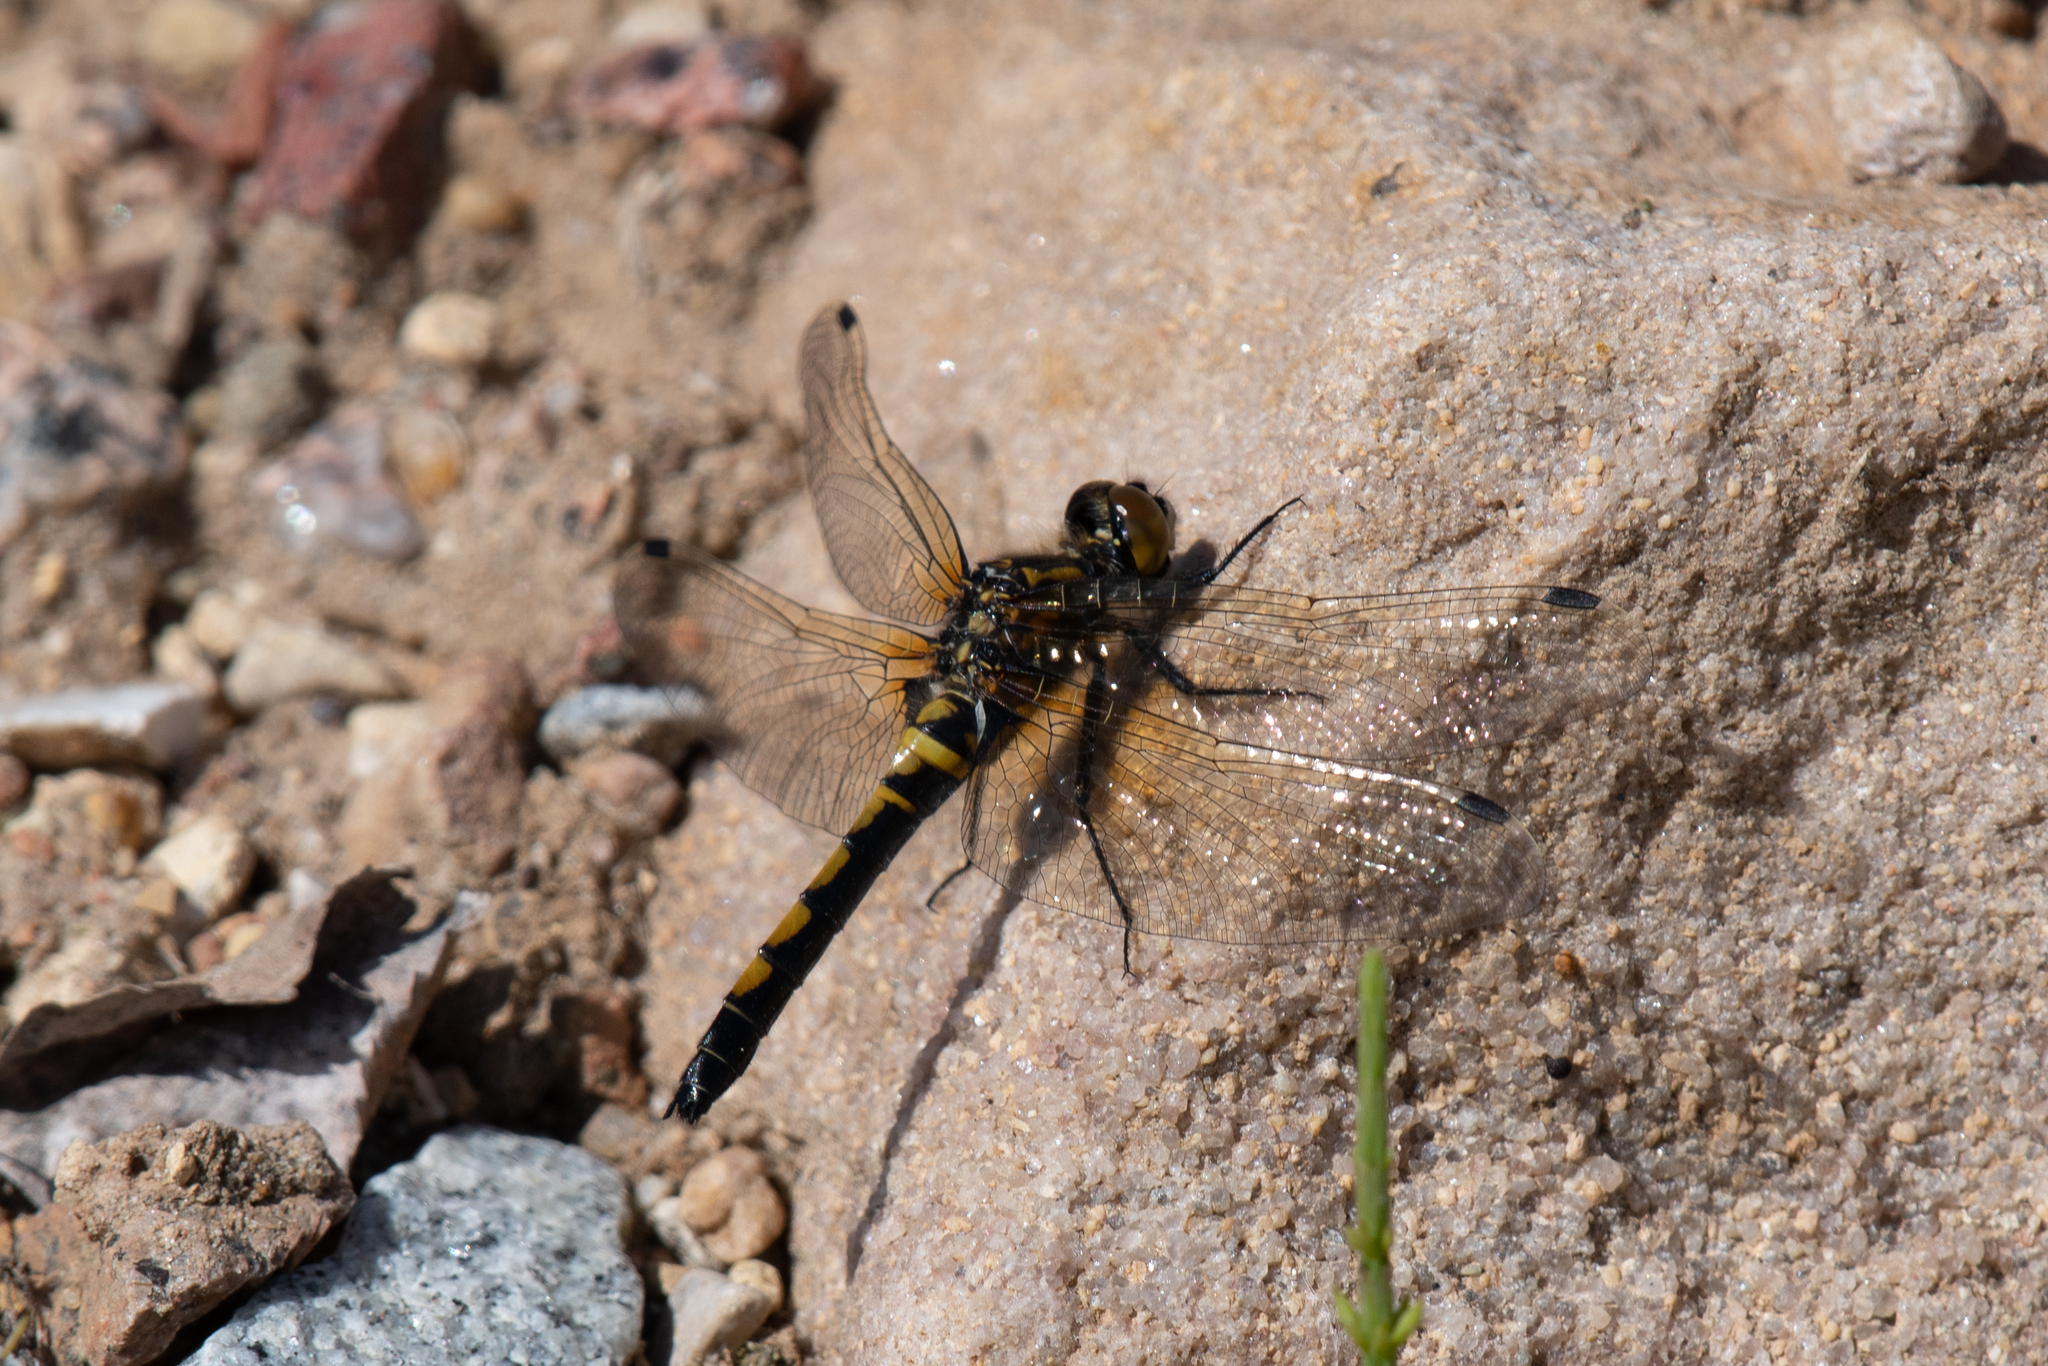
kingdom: Animalia
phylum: Arthropoda
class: Insecta
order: Odonata
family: Libellulidae
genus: Leucorrhinia
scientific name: Leucorrhinia rubicunda
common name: Ruby whiteface
